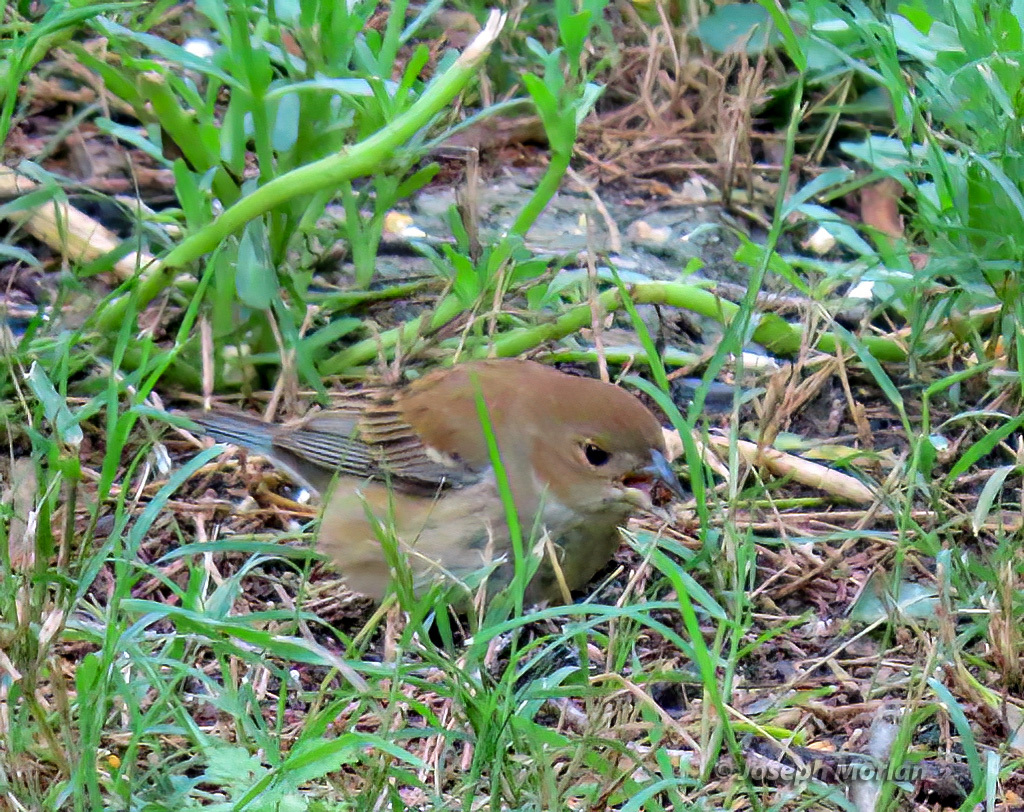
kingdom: Animalia
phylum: Chordata
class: Aves
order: Passeriformes
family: Cardinalidae
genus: Passerina
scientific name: Passerina cyanea
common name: Indigo bunting
